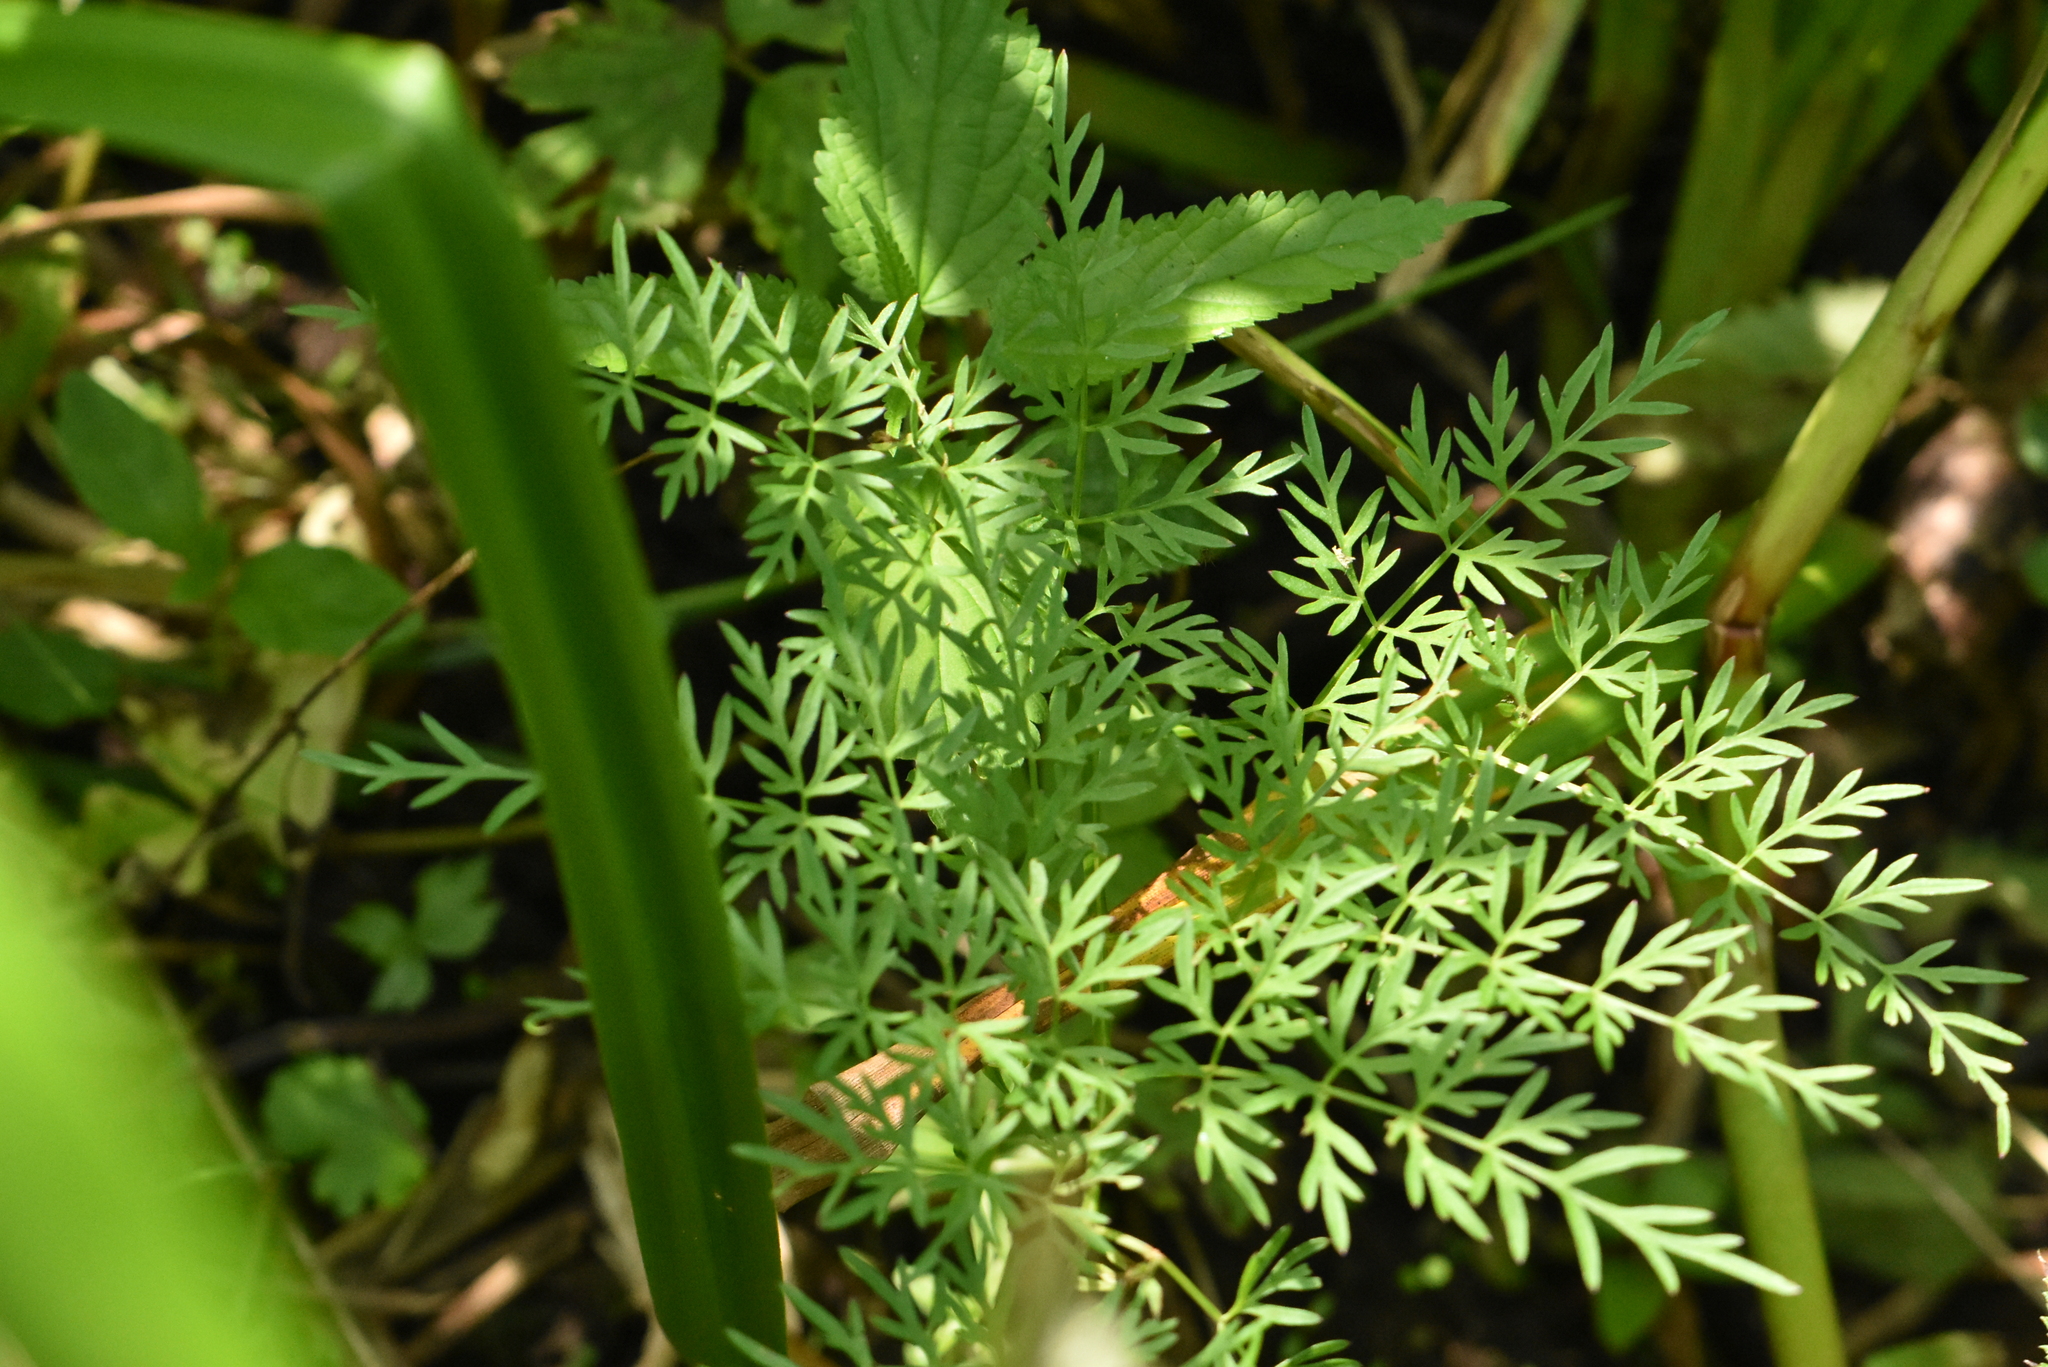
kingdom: Plantae
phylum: Tracheophyta
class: Magnoliopsida
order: Apiales
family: Apiaceae
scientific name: Apiaceae
